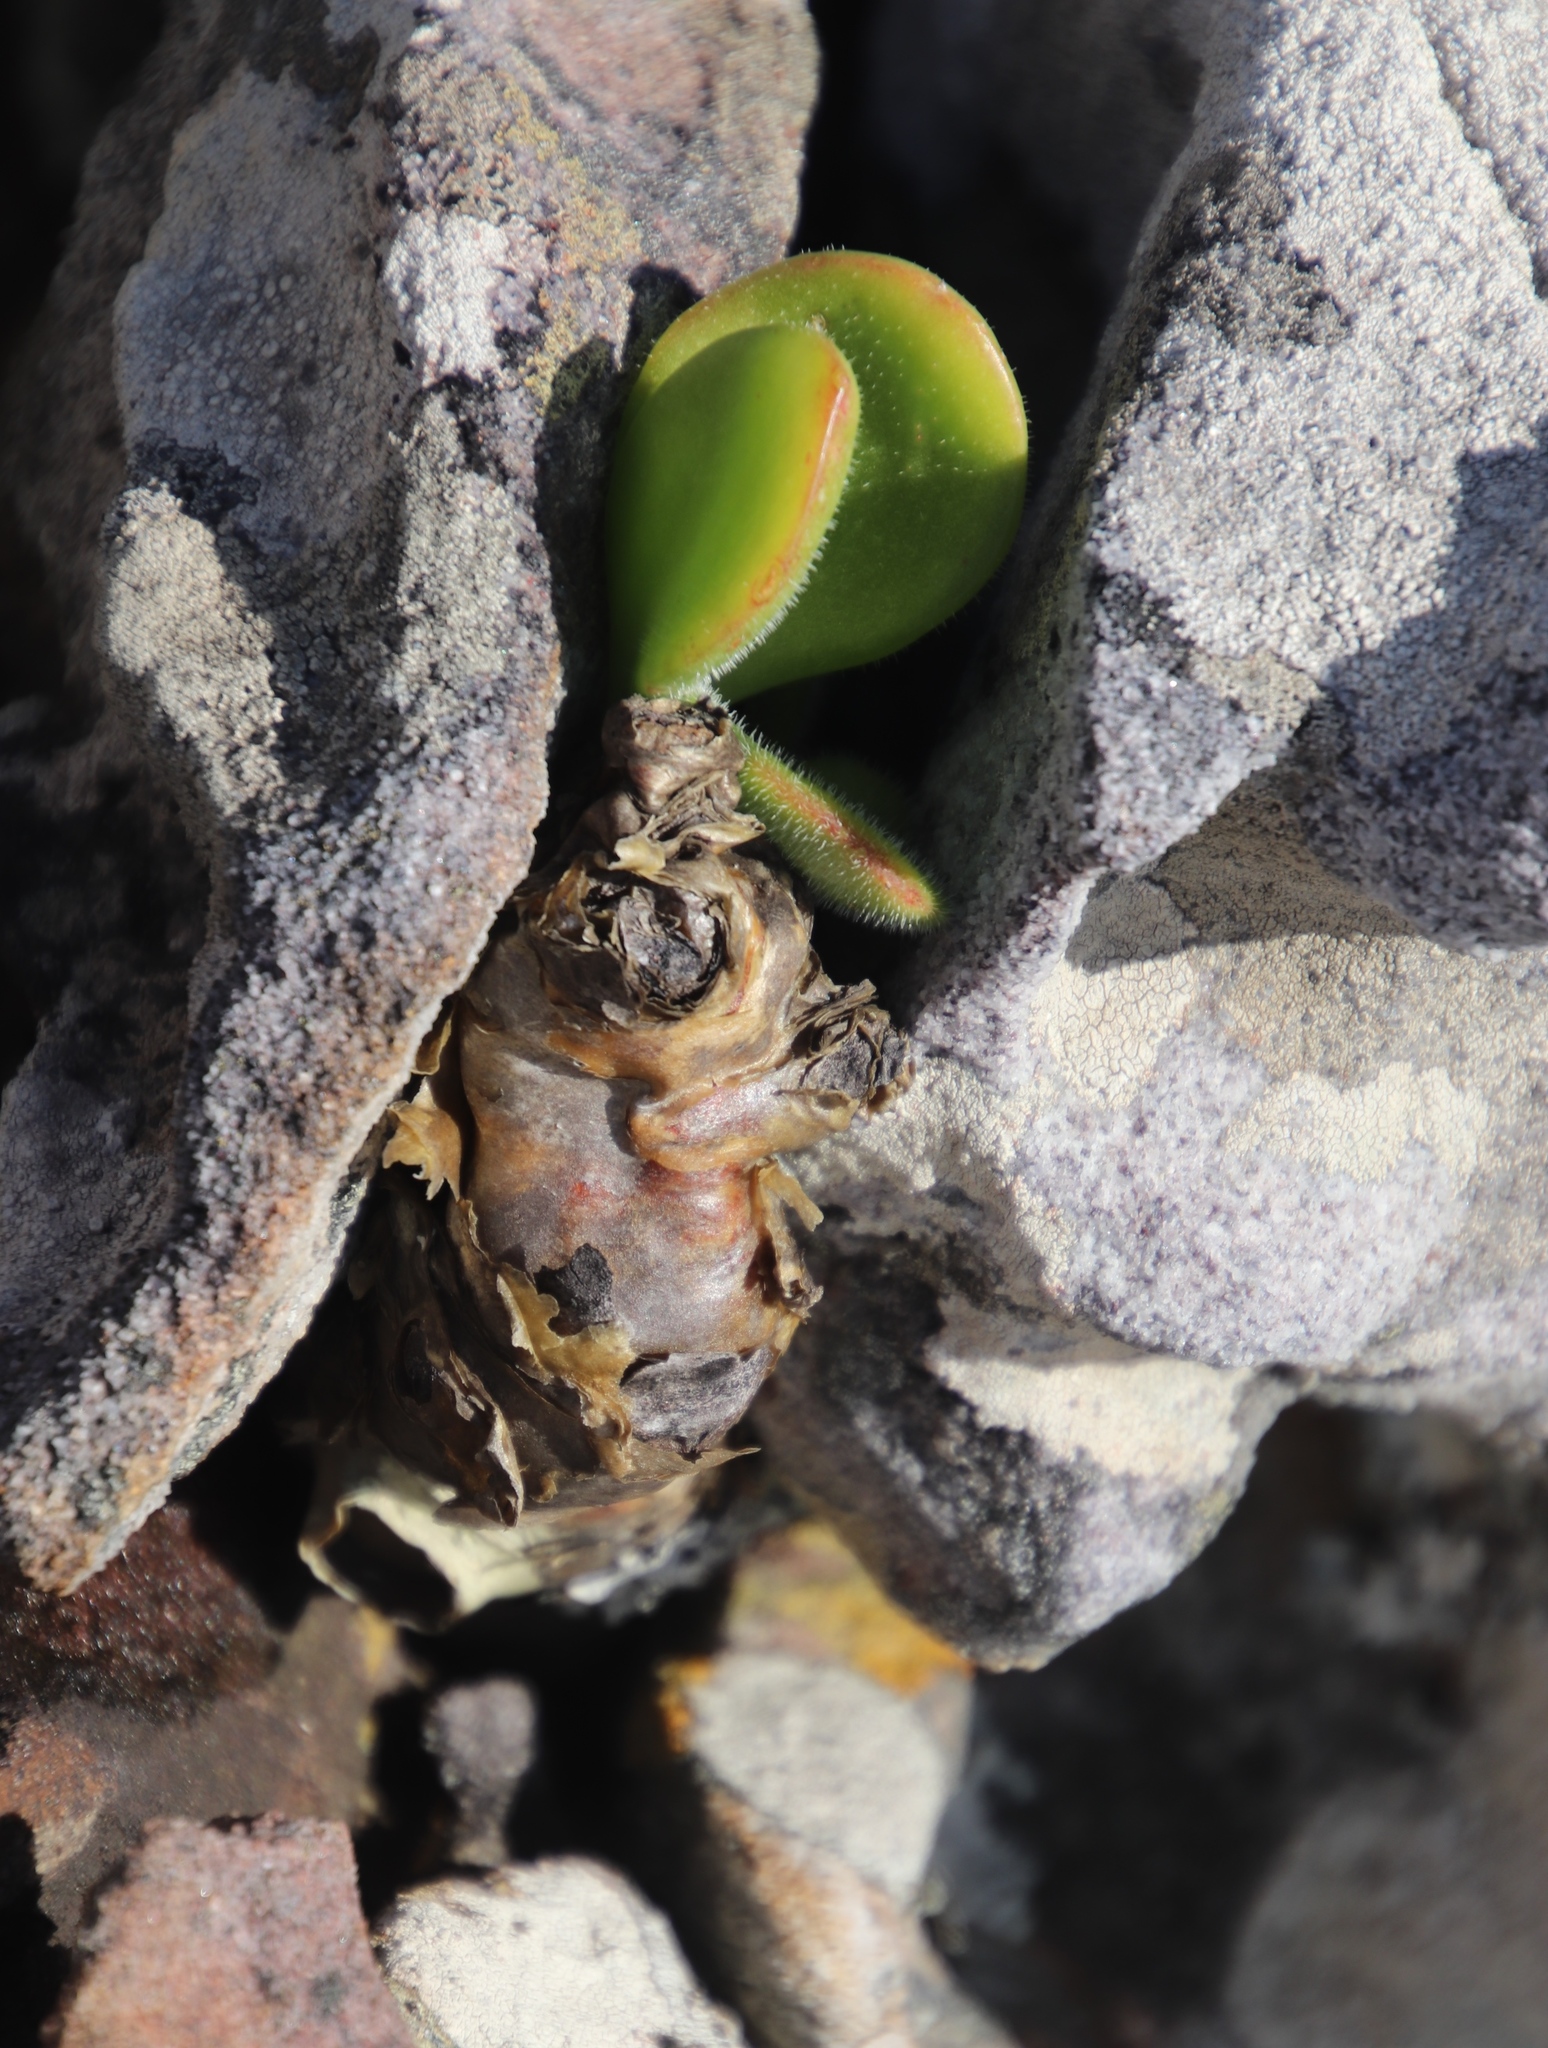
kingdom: Plantae
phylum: Tracheophyta
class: Magnoliopsida
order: Saxifragales
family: Crassulaceae
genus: Tylecodon
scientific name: Tylecodon paniculatus
